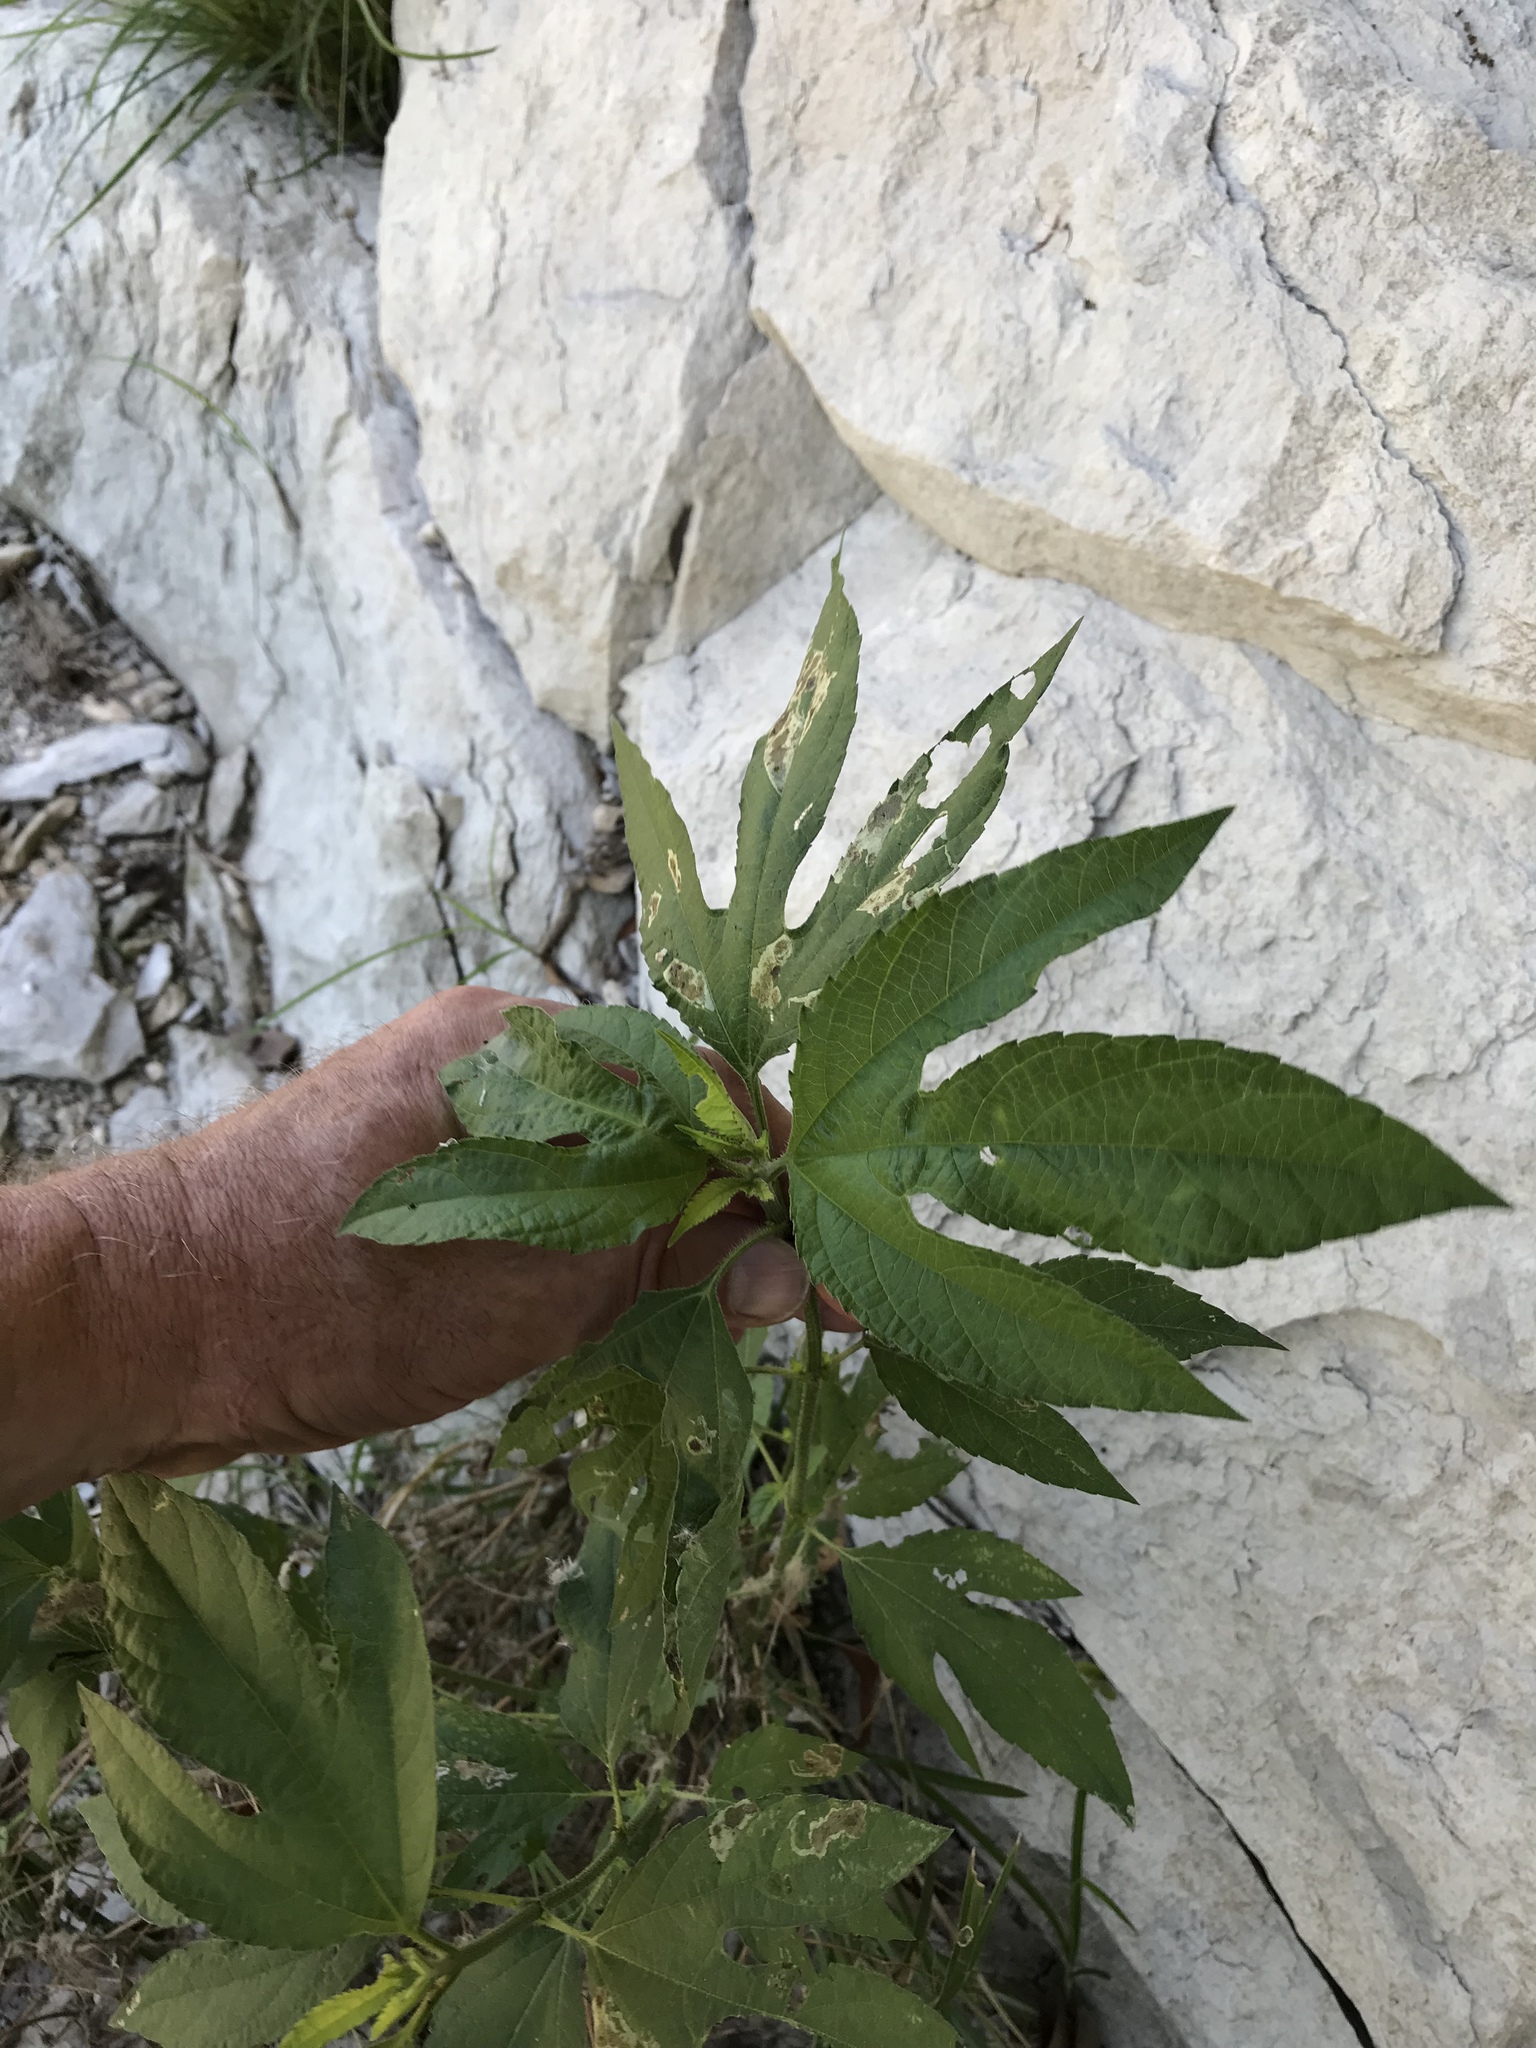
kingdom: Plantae
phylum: Tracheophyta
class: Magnoliopsida
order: Asterales
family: Asteraceae
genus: Ambrosia
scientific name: Ambrosia trifida
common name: Giant ragweed
